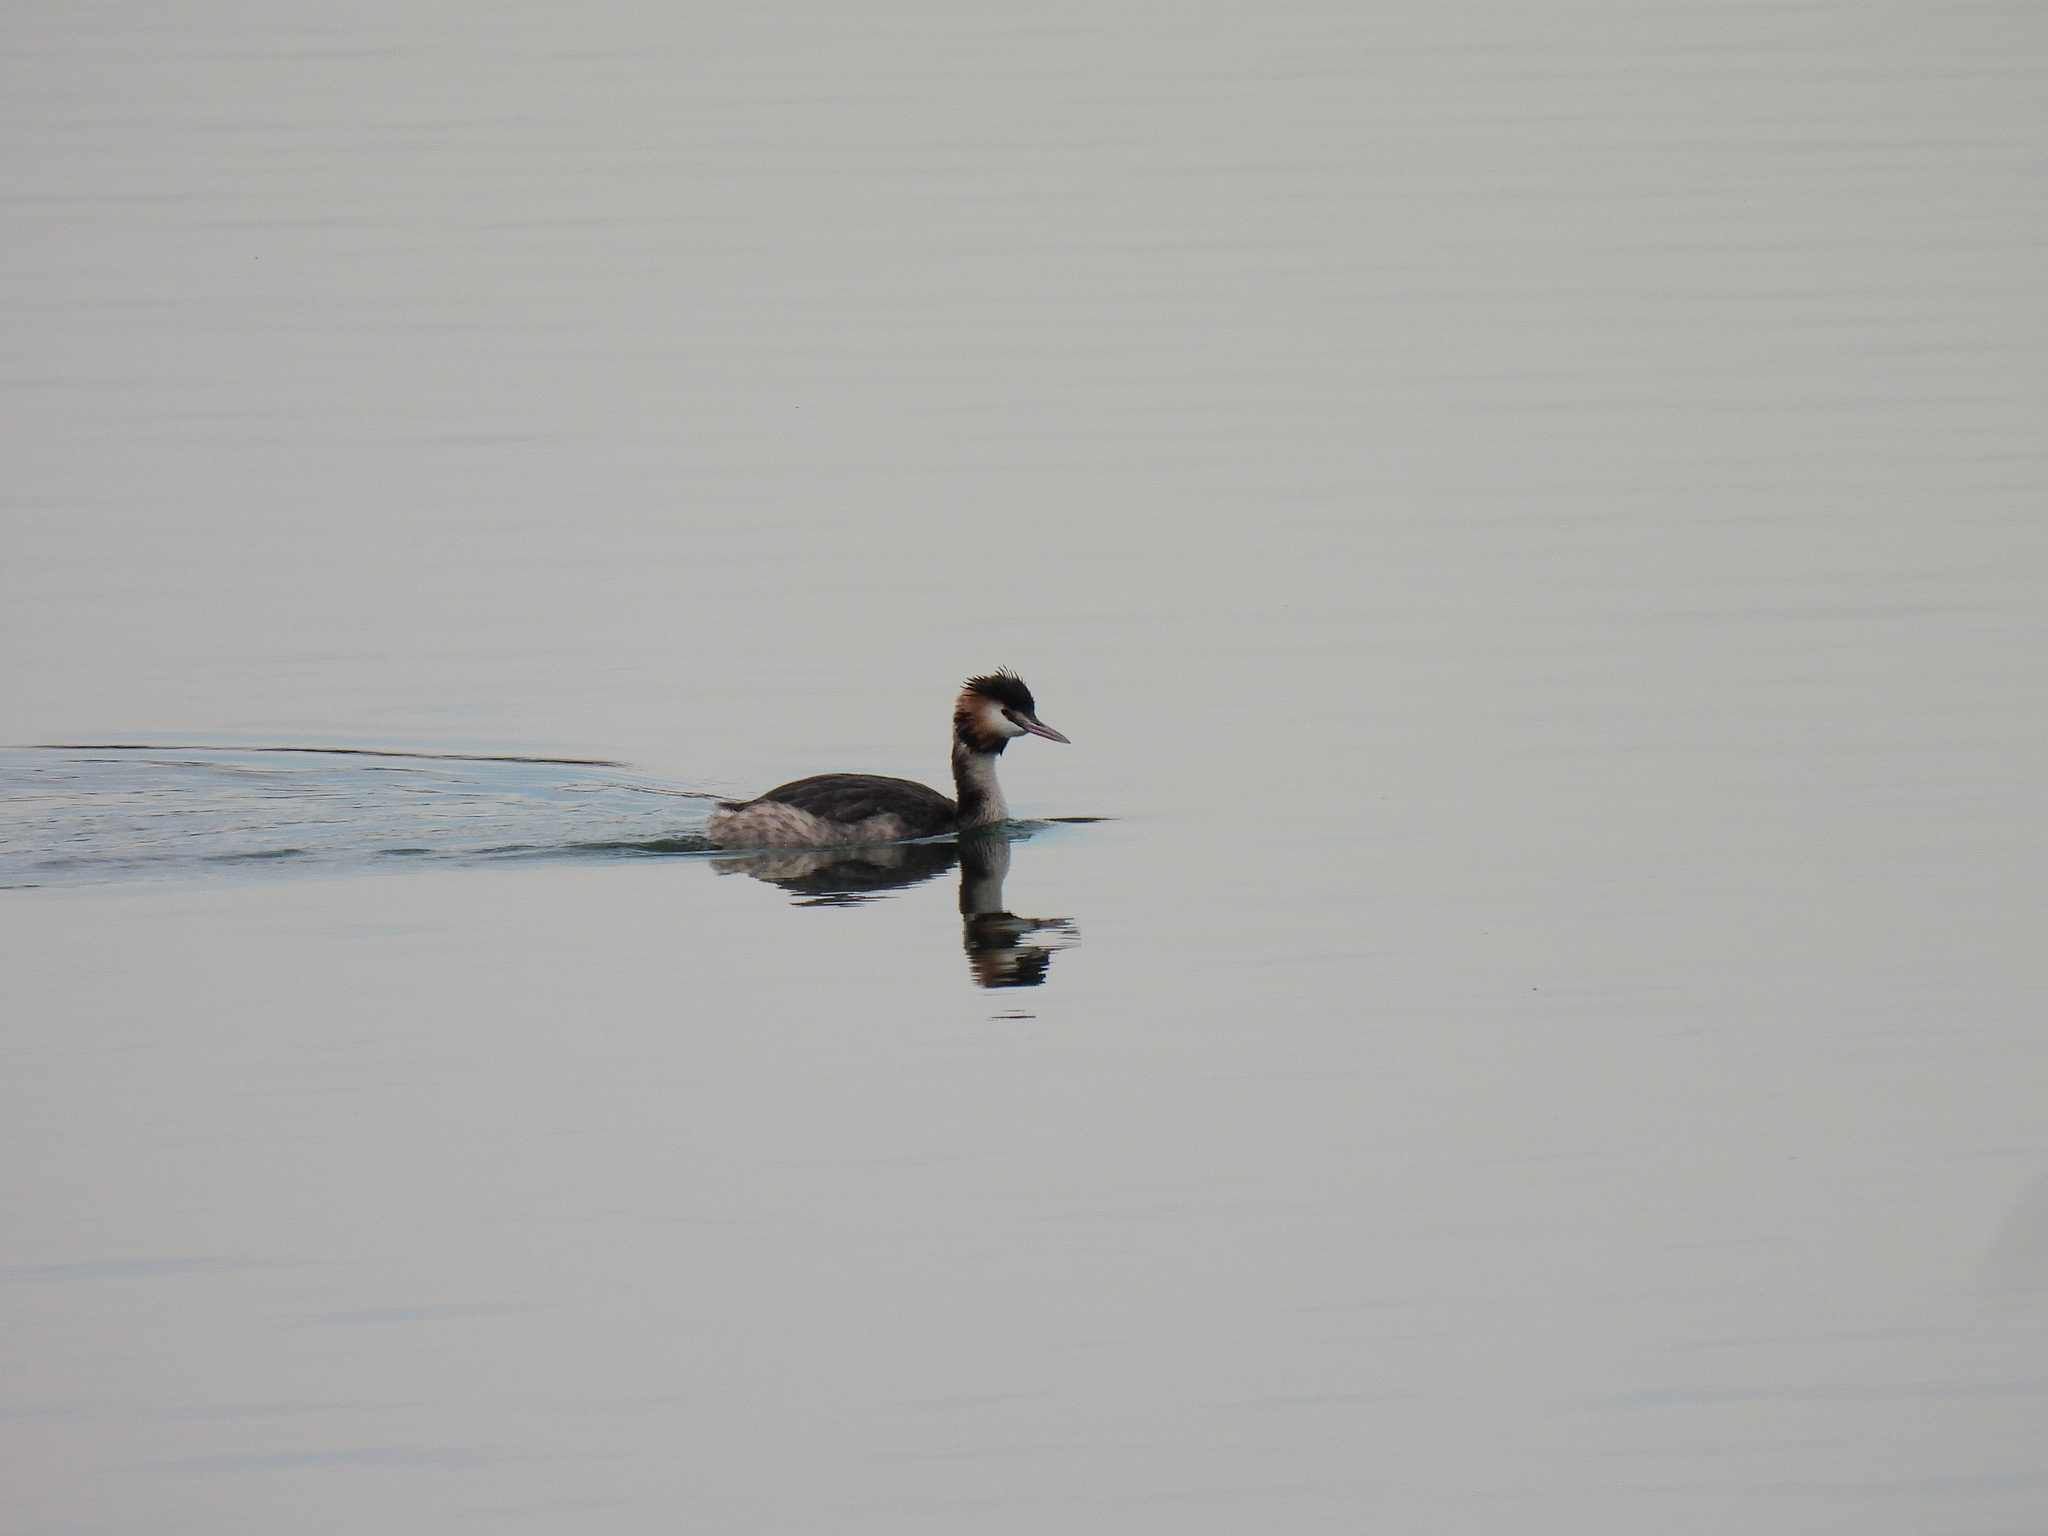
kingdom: Animalia
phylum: Chordata
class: Aves
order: Podicipediformes
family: Podicipedidae
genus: Podiceps
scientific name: Podiceps cristatus
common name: Great crested grebe
